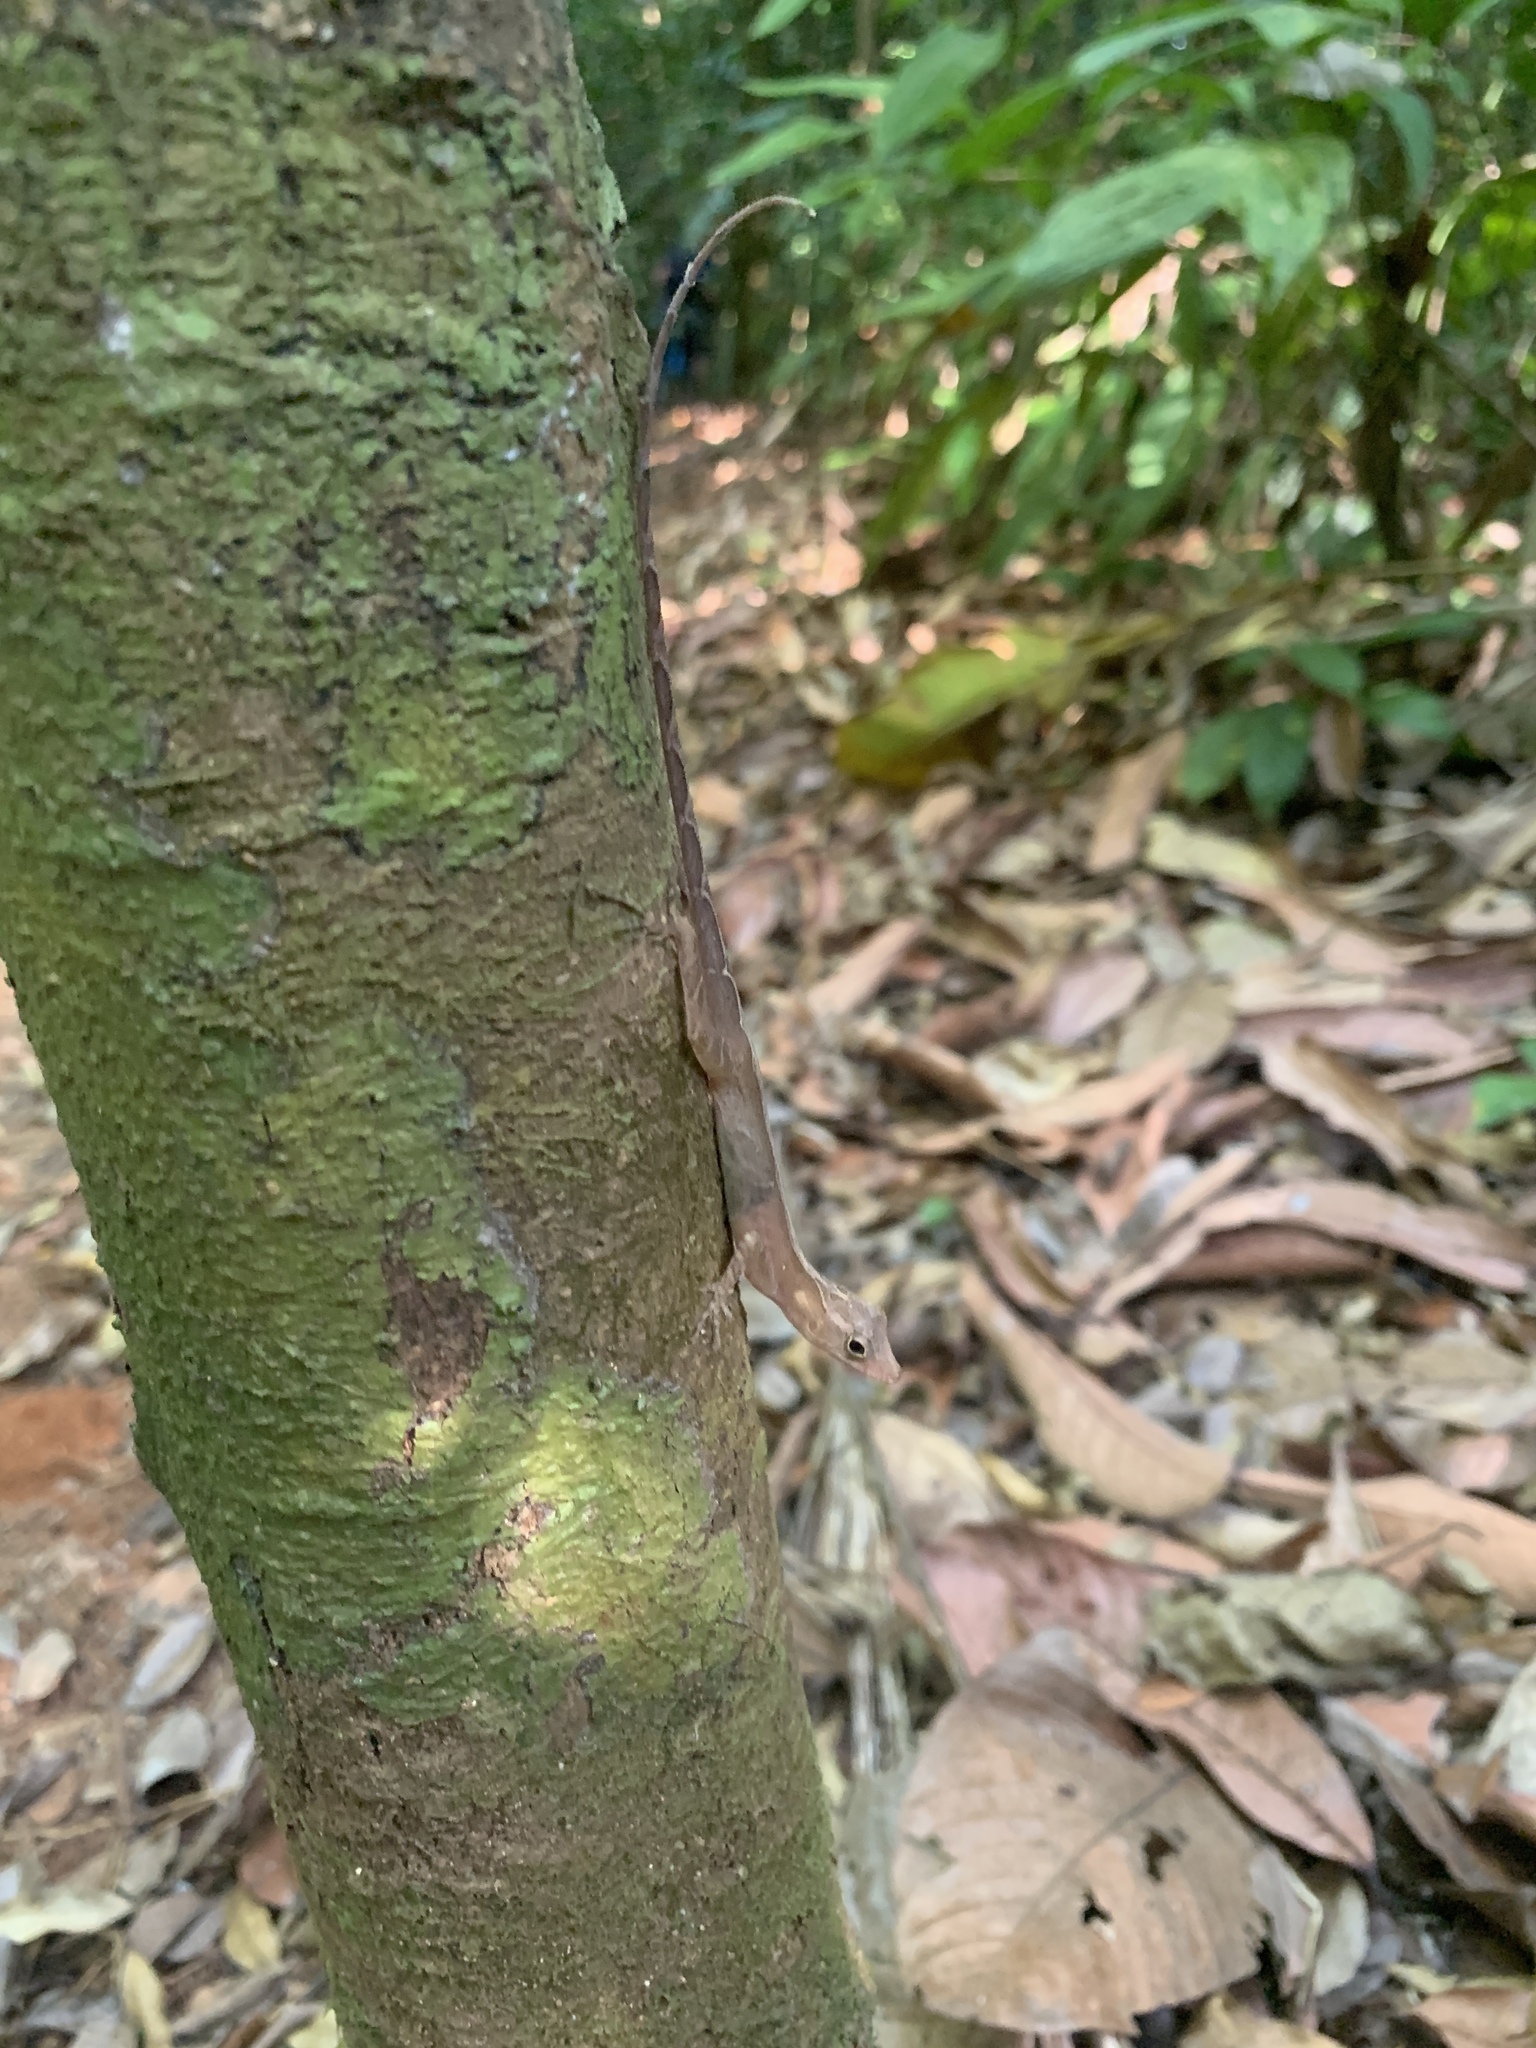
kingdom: Animalia
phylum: Chordata
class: Squamata
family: Dactyloidae
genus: Anolis
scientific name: Anolis osa
